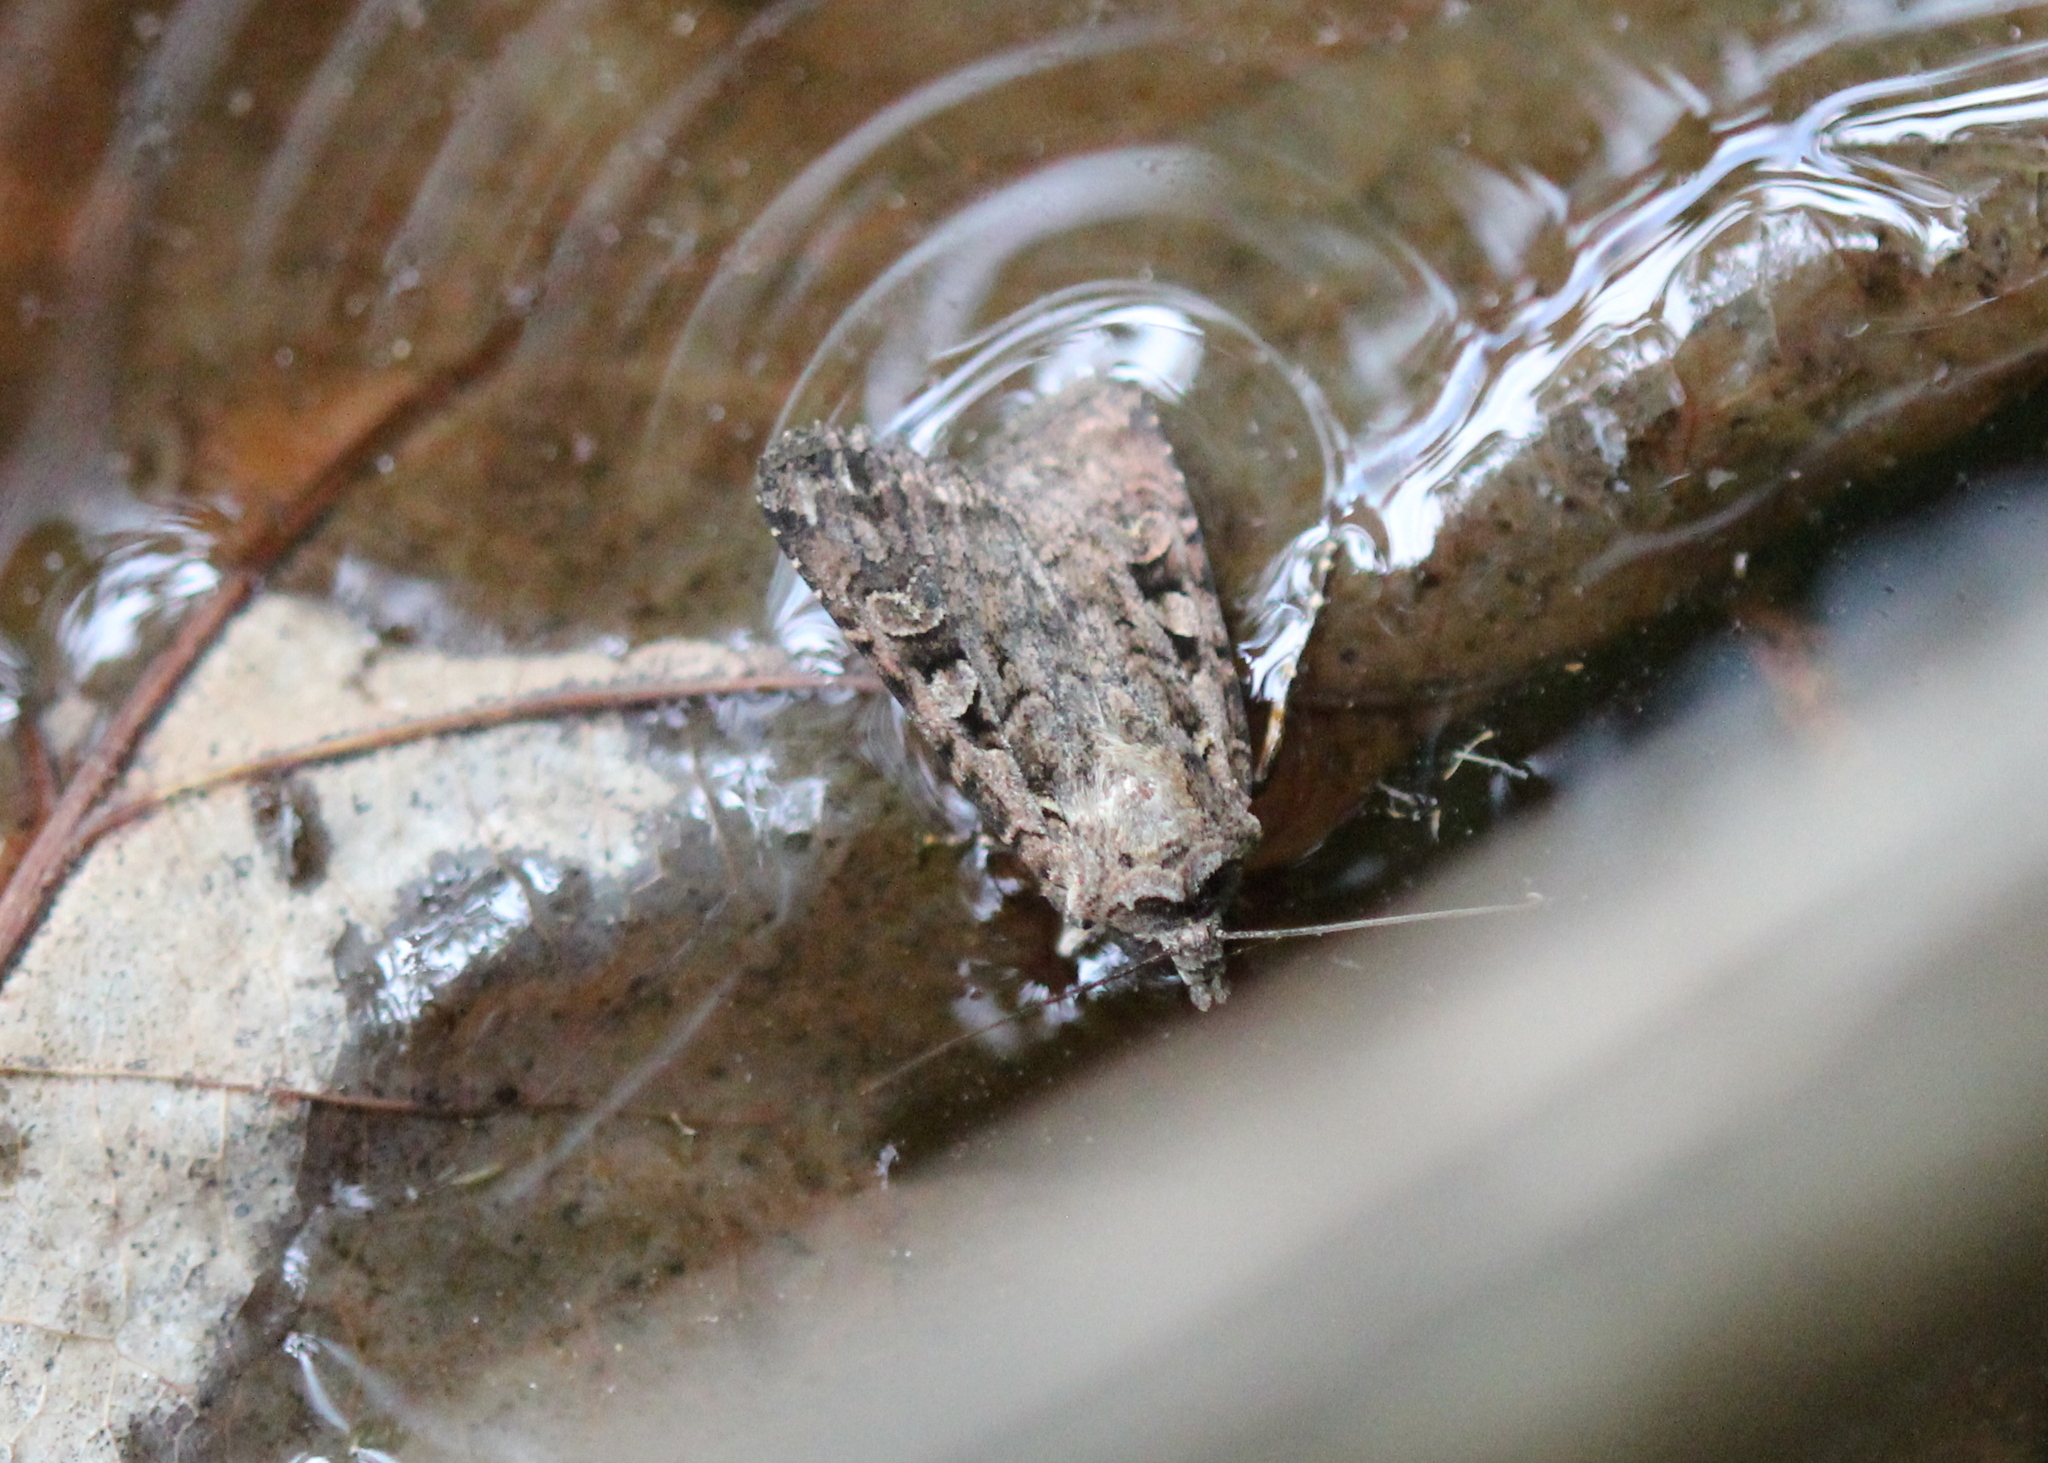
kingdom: Animalia
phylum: Arthropoda
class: Insecta
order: Lepidoptera
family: Noctuidae
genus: Euxoa
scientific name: Euxoa tessellata
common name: Striped cutworm
